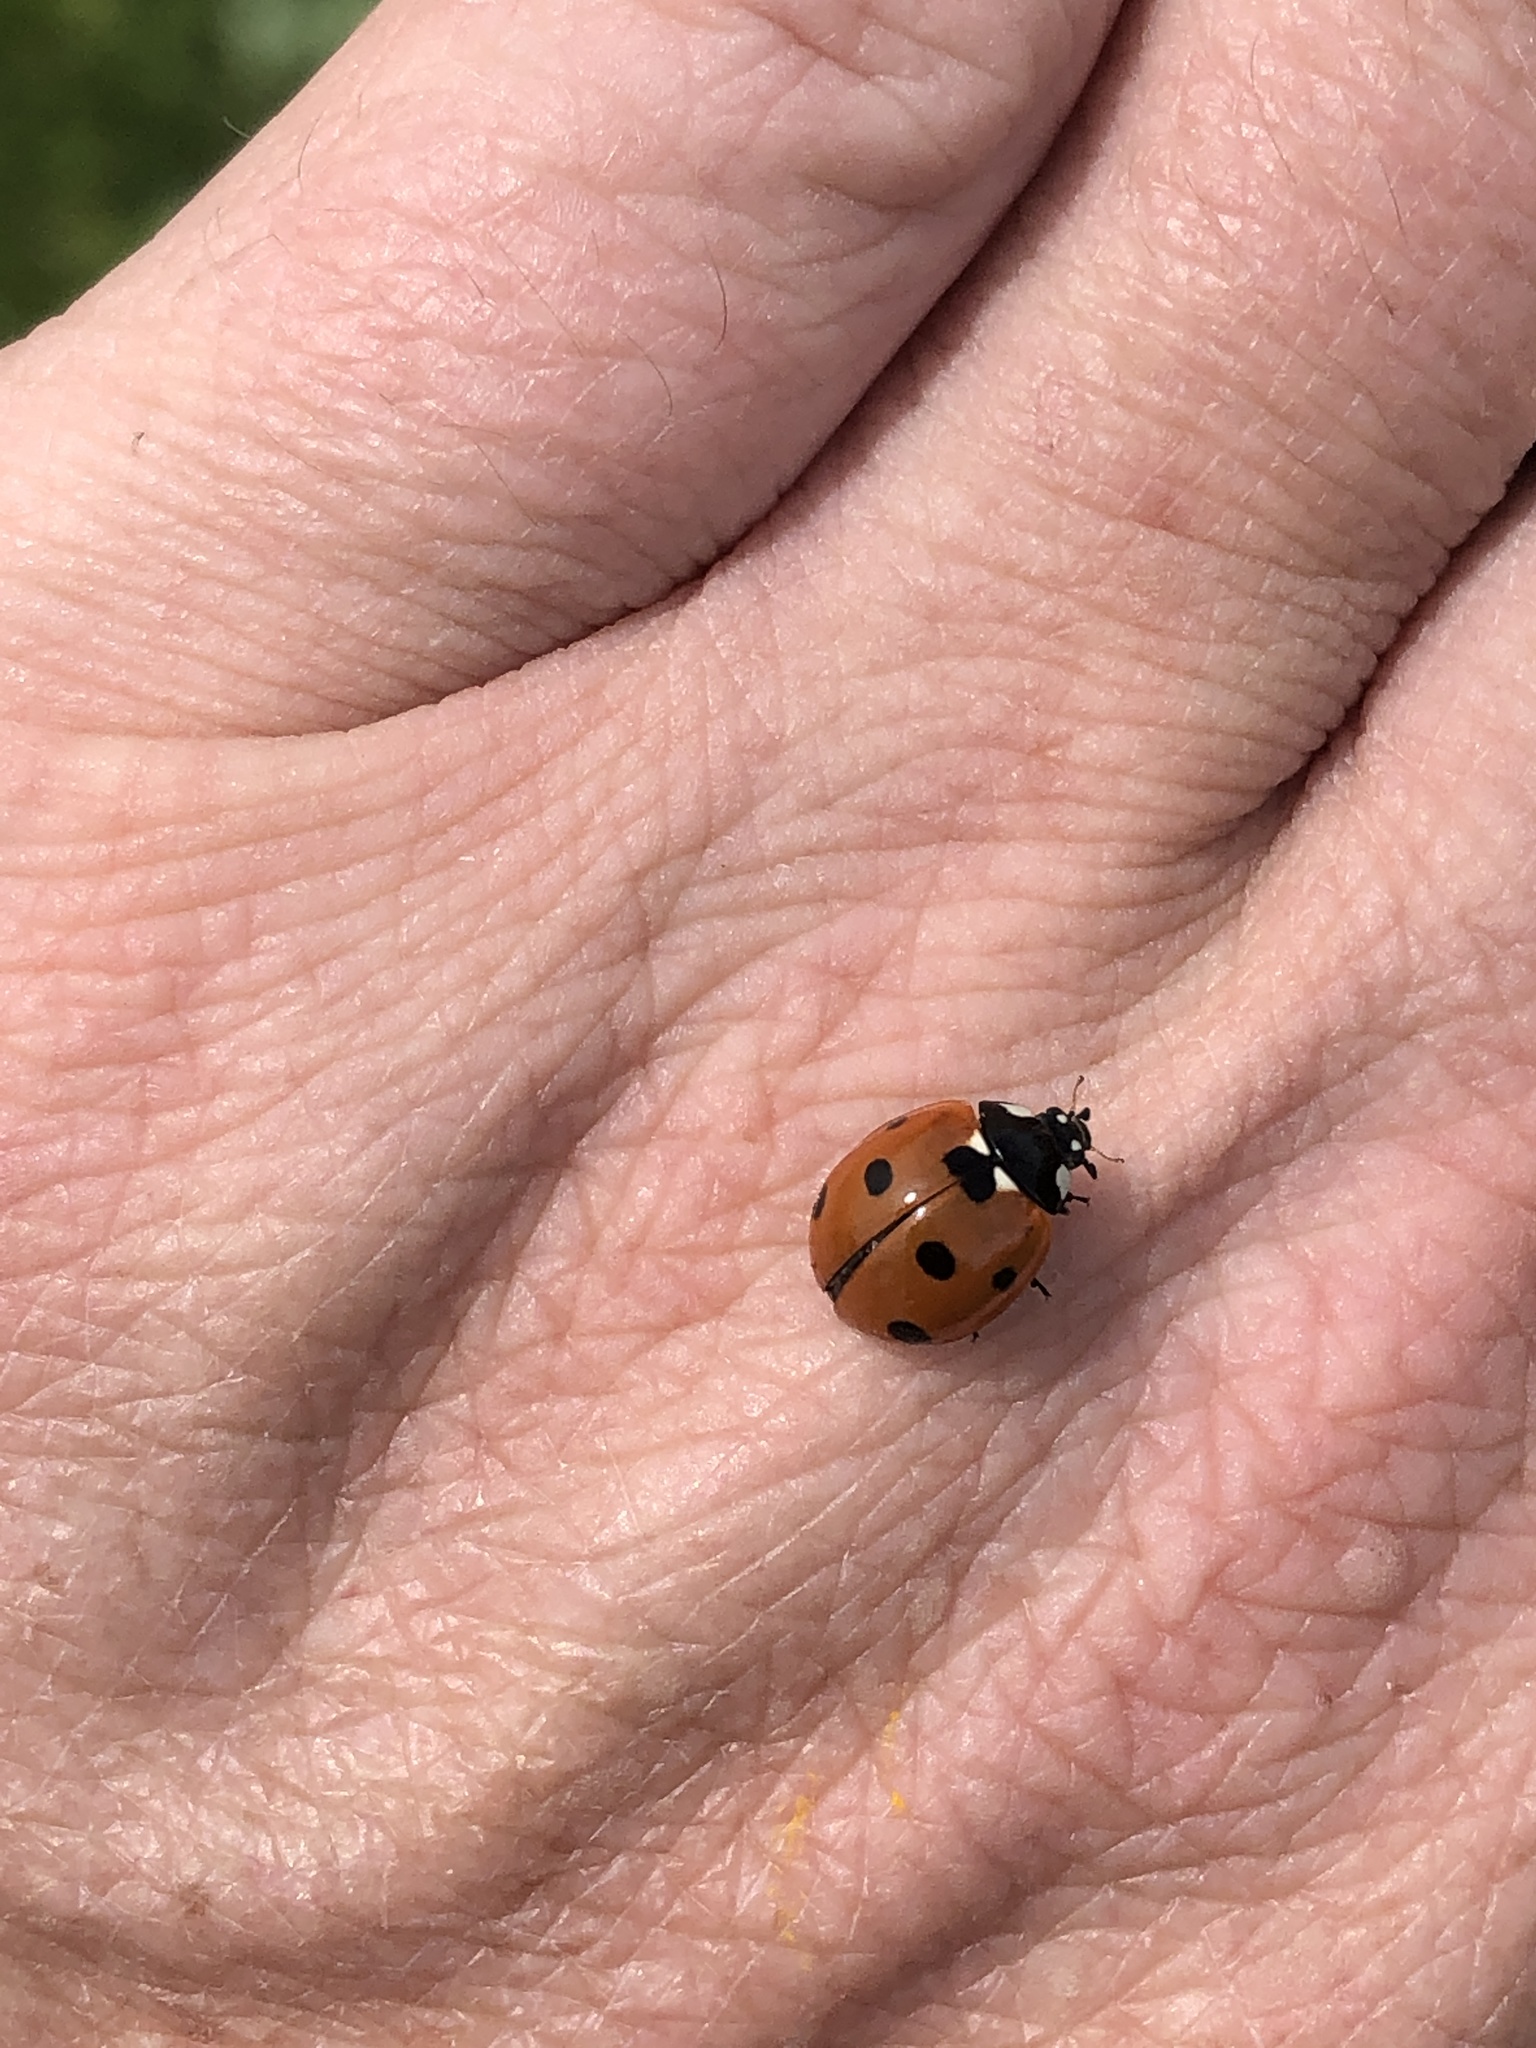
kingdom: Animalia
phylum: Arthropoda
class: Insecta
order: Coleoptera
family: Coccinellidae
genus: Coccinella
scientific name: Coccinella septempunctata
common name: Sevenspotted lady beetle
